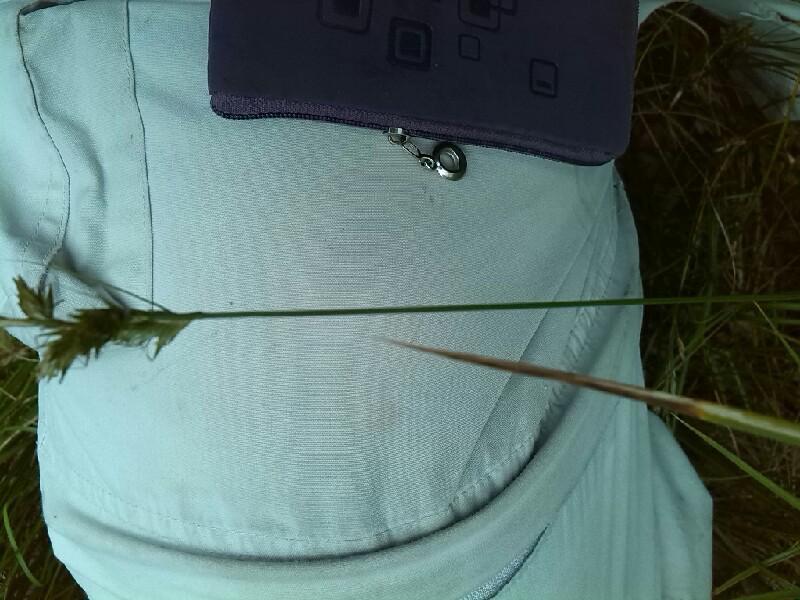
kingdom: Plantae
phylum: Tracheophyta
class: Liliopsida
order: Poales
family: Cyperaceae
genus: Carex
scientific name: Carex pseudobrizoides
